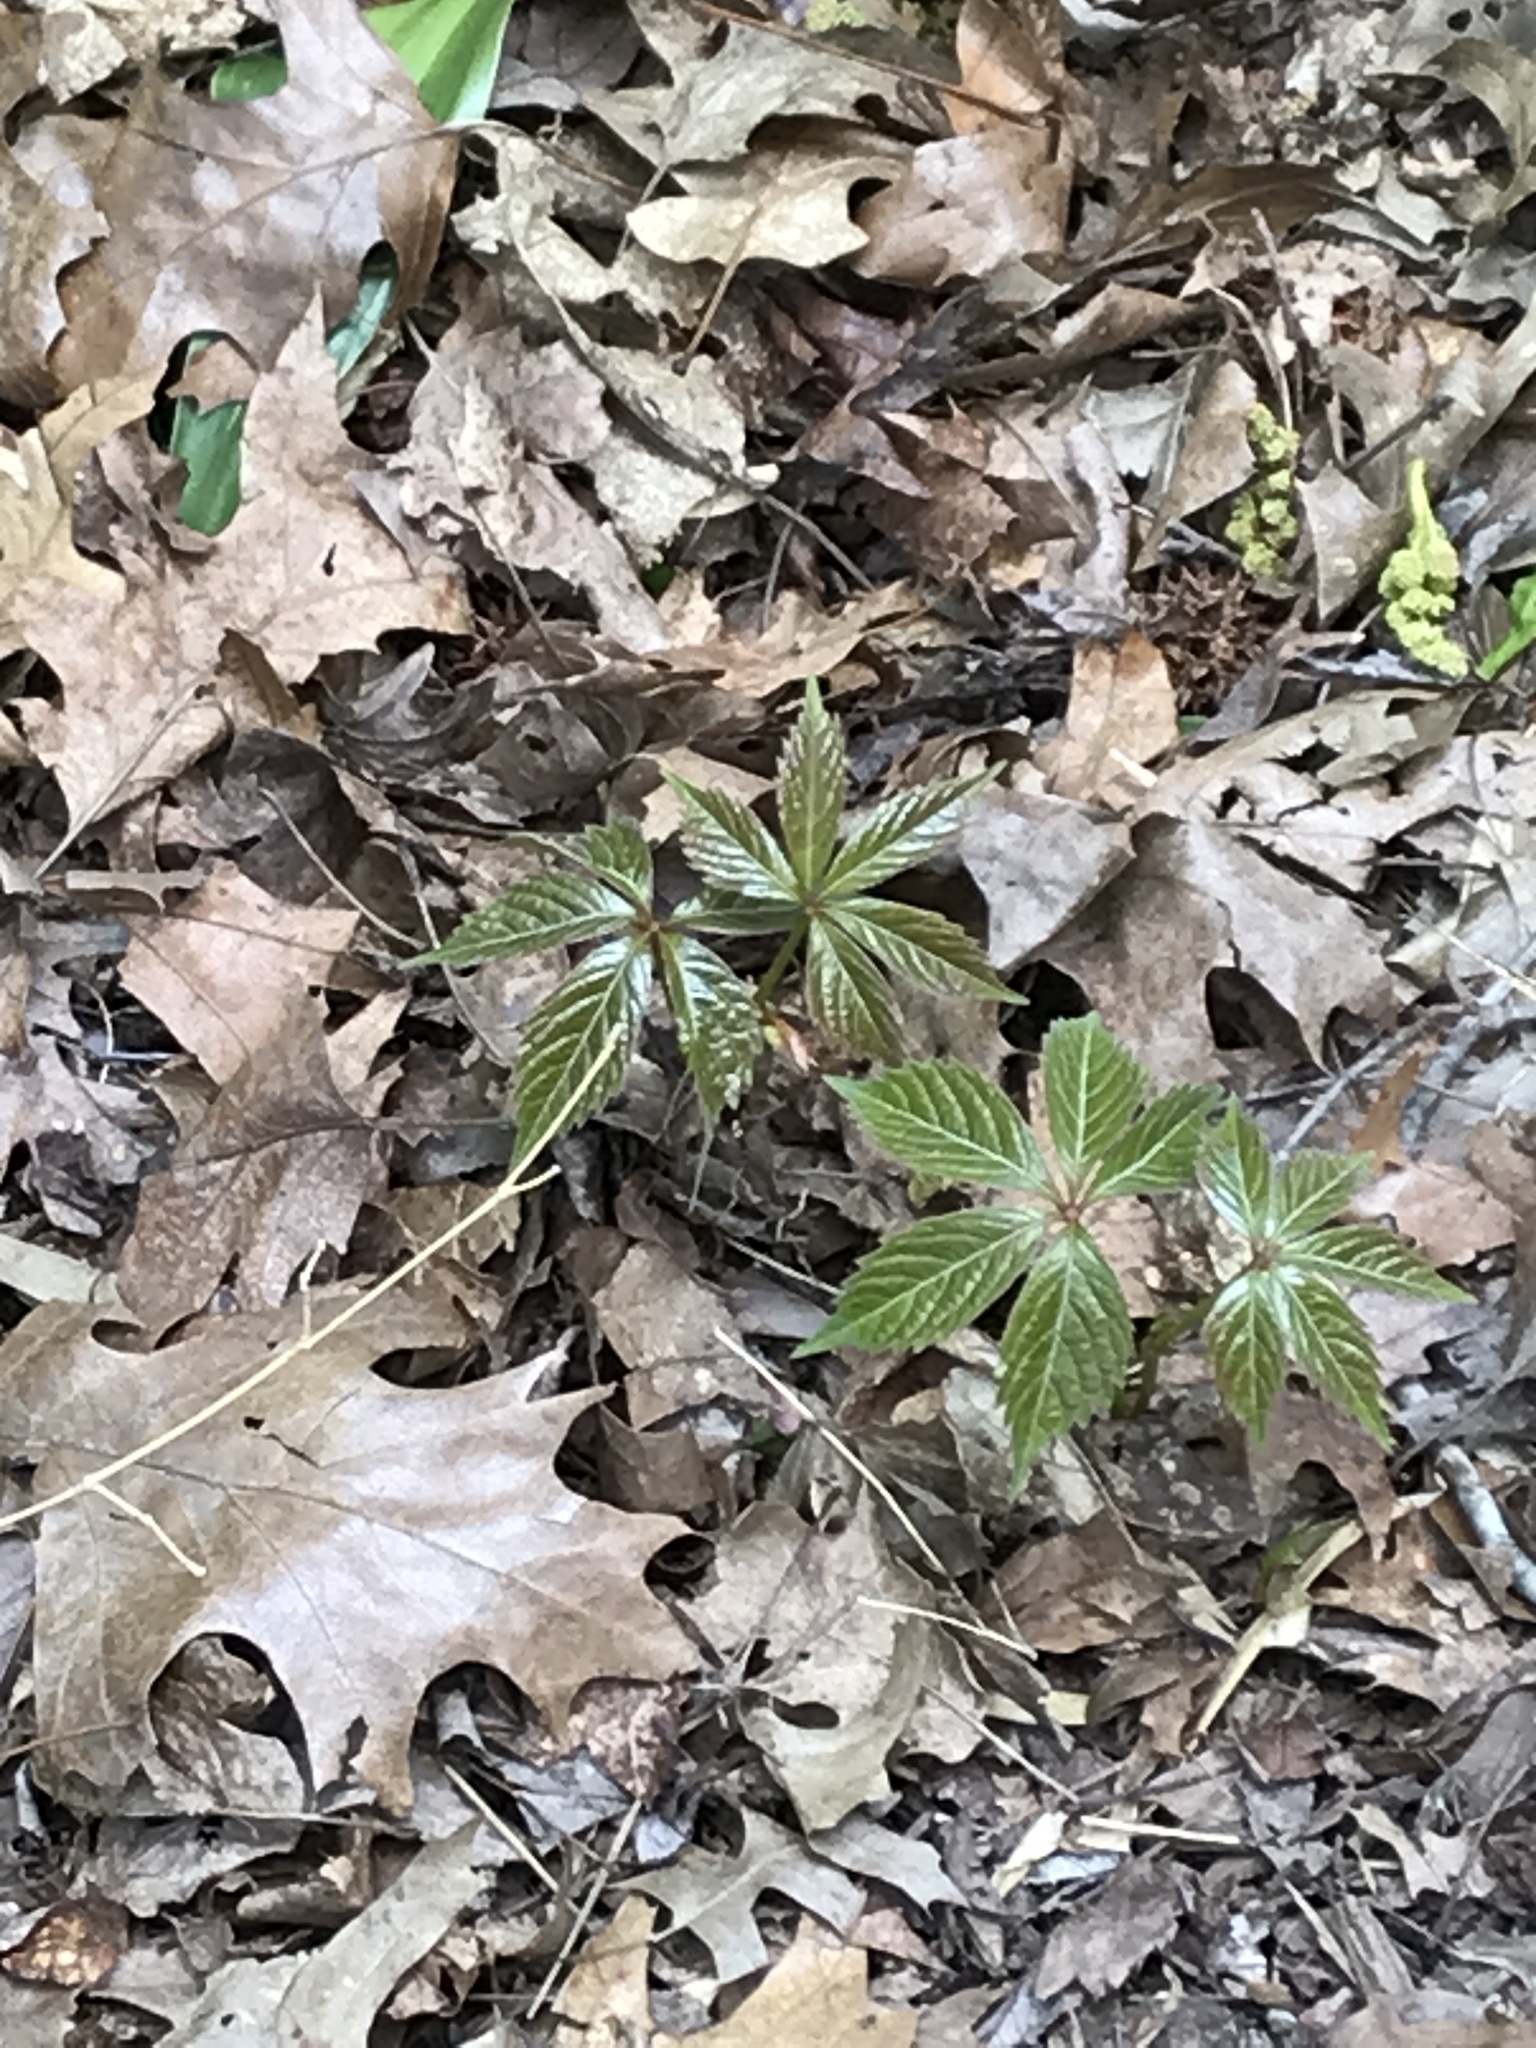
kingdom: Plantae
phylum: Tracheophyta
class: Magnoliopsida
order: Vitales
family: Vitaceae
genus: Parthenocissus
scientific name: Parthenocissus quinquefolia
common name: Virginia-creeper
